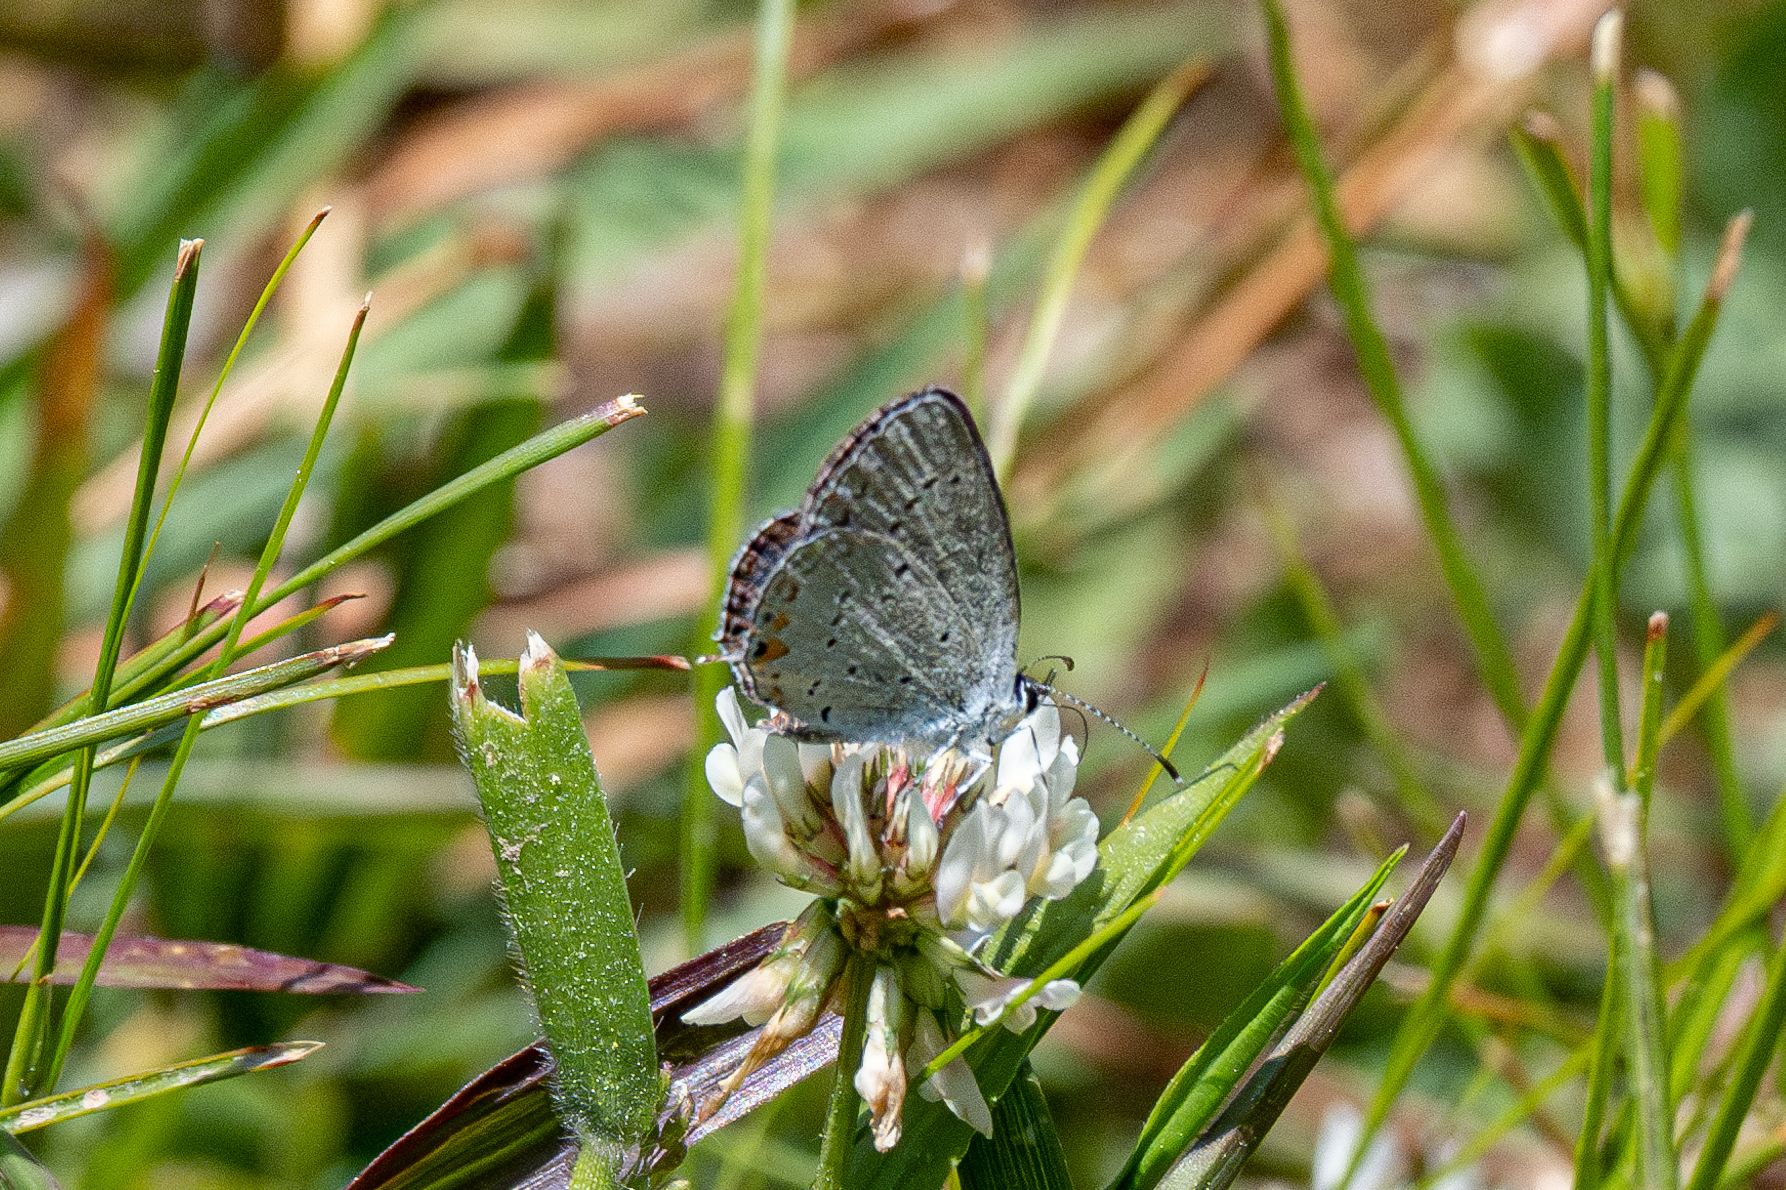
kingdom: Animalia
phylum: Arthropoda
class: Insecta
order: Lepidoptera
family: Lycaenidae
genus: Elkalyce
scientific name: Elkalyce comyntas
